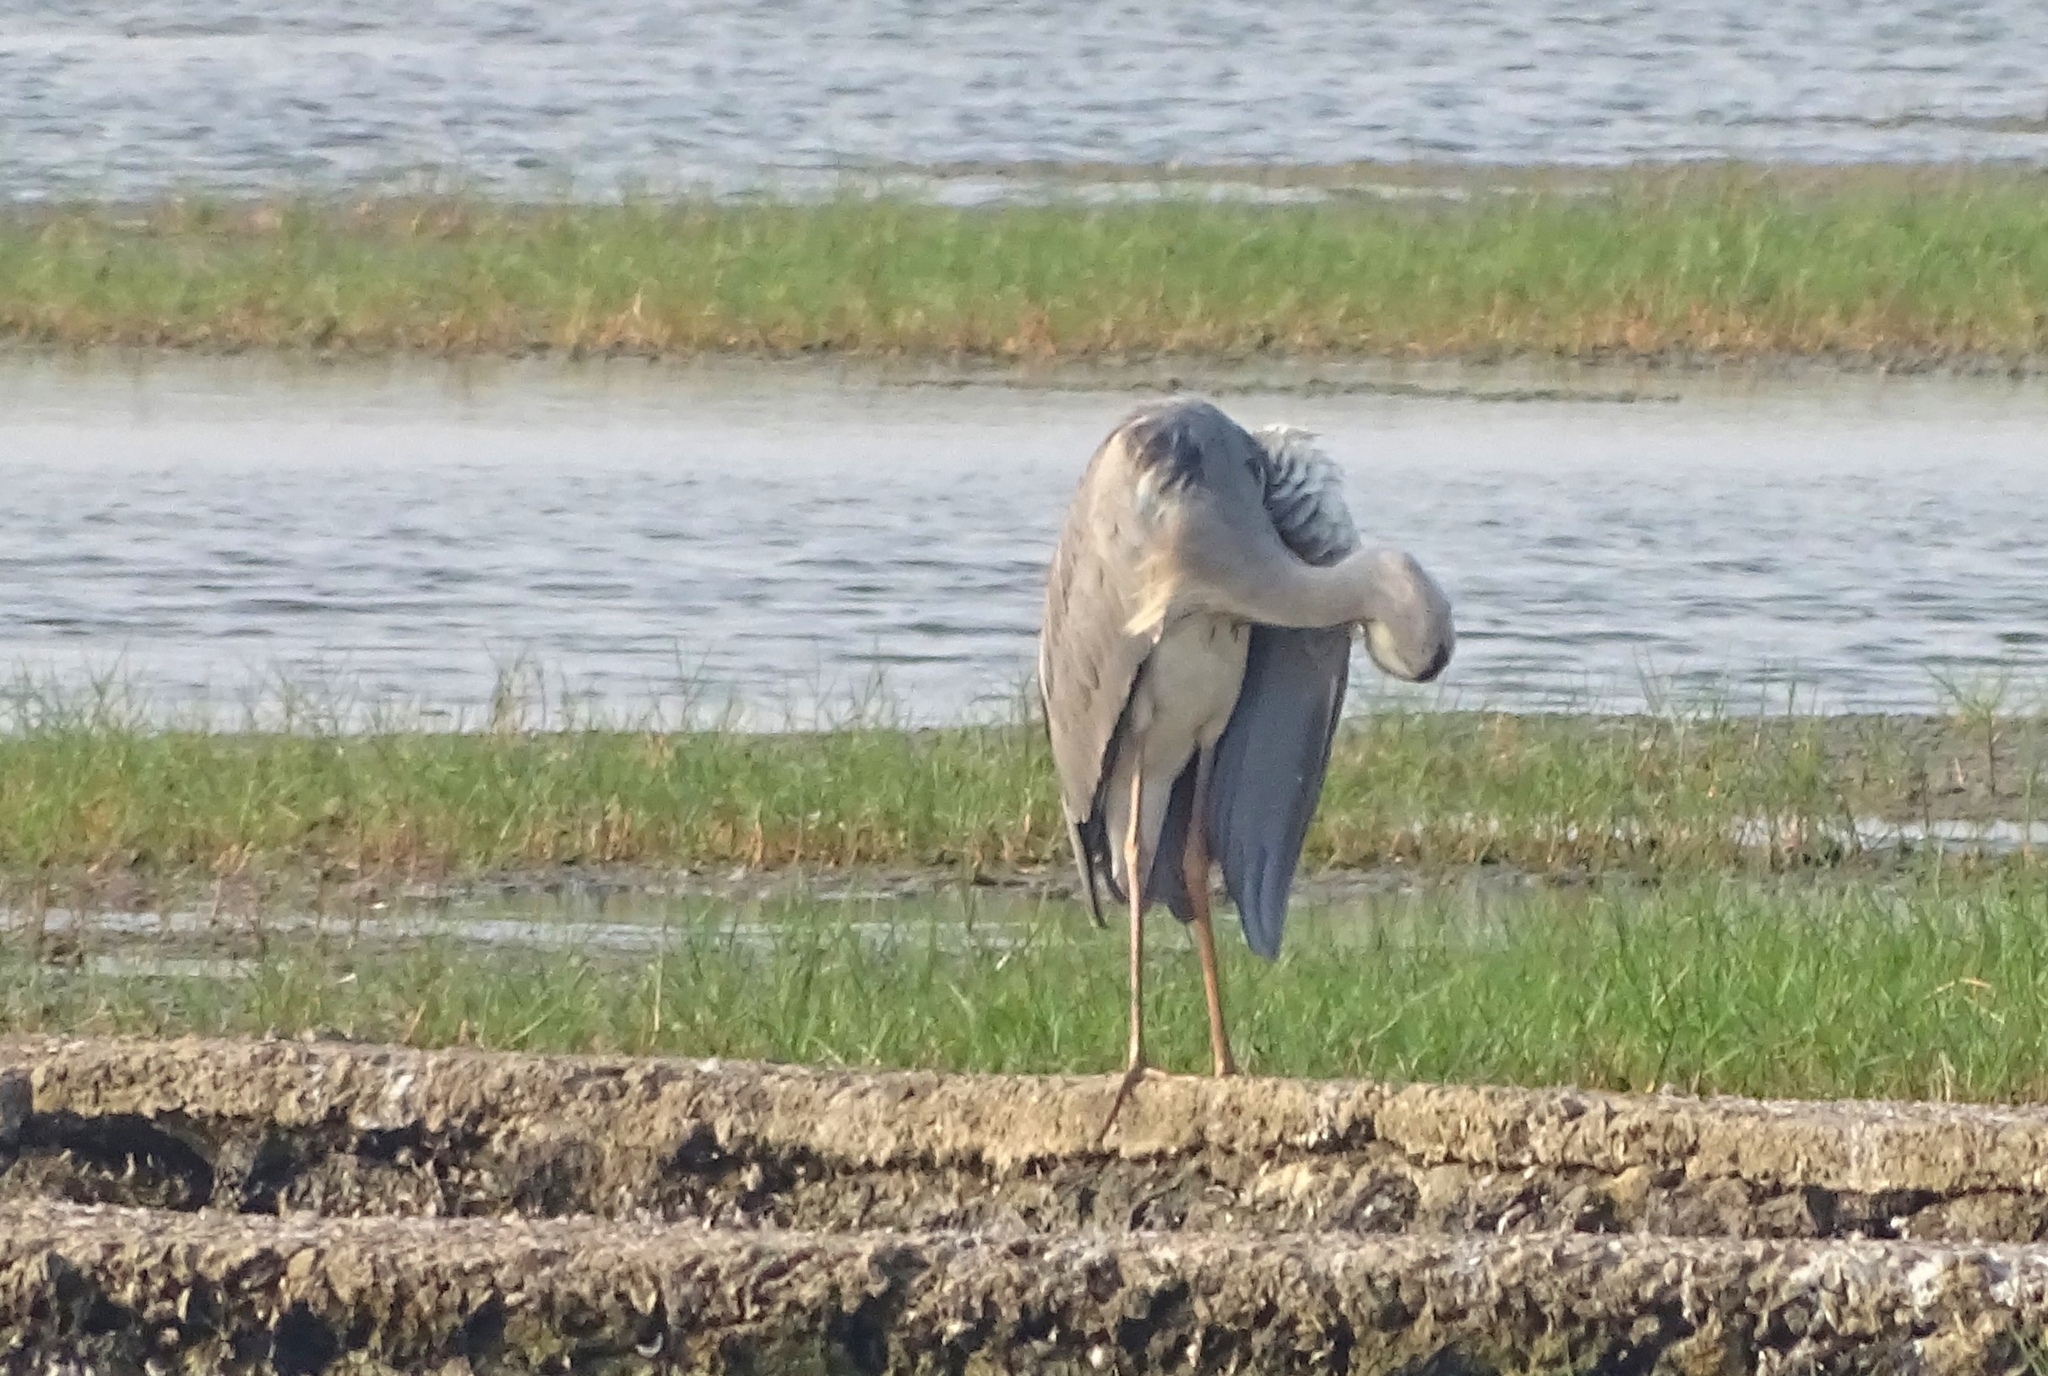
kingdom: Animalia
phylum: Chordata
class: Aves
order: Pelecaniformes
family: Ardeidae
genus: Ardea
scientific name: Ardea cinerea
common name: Grey heron
